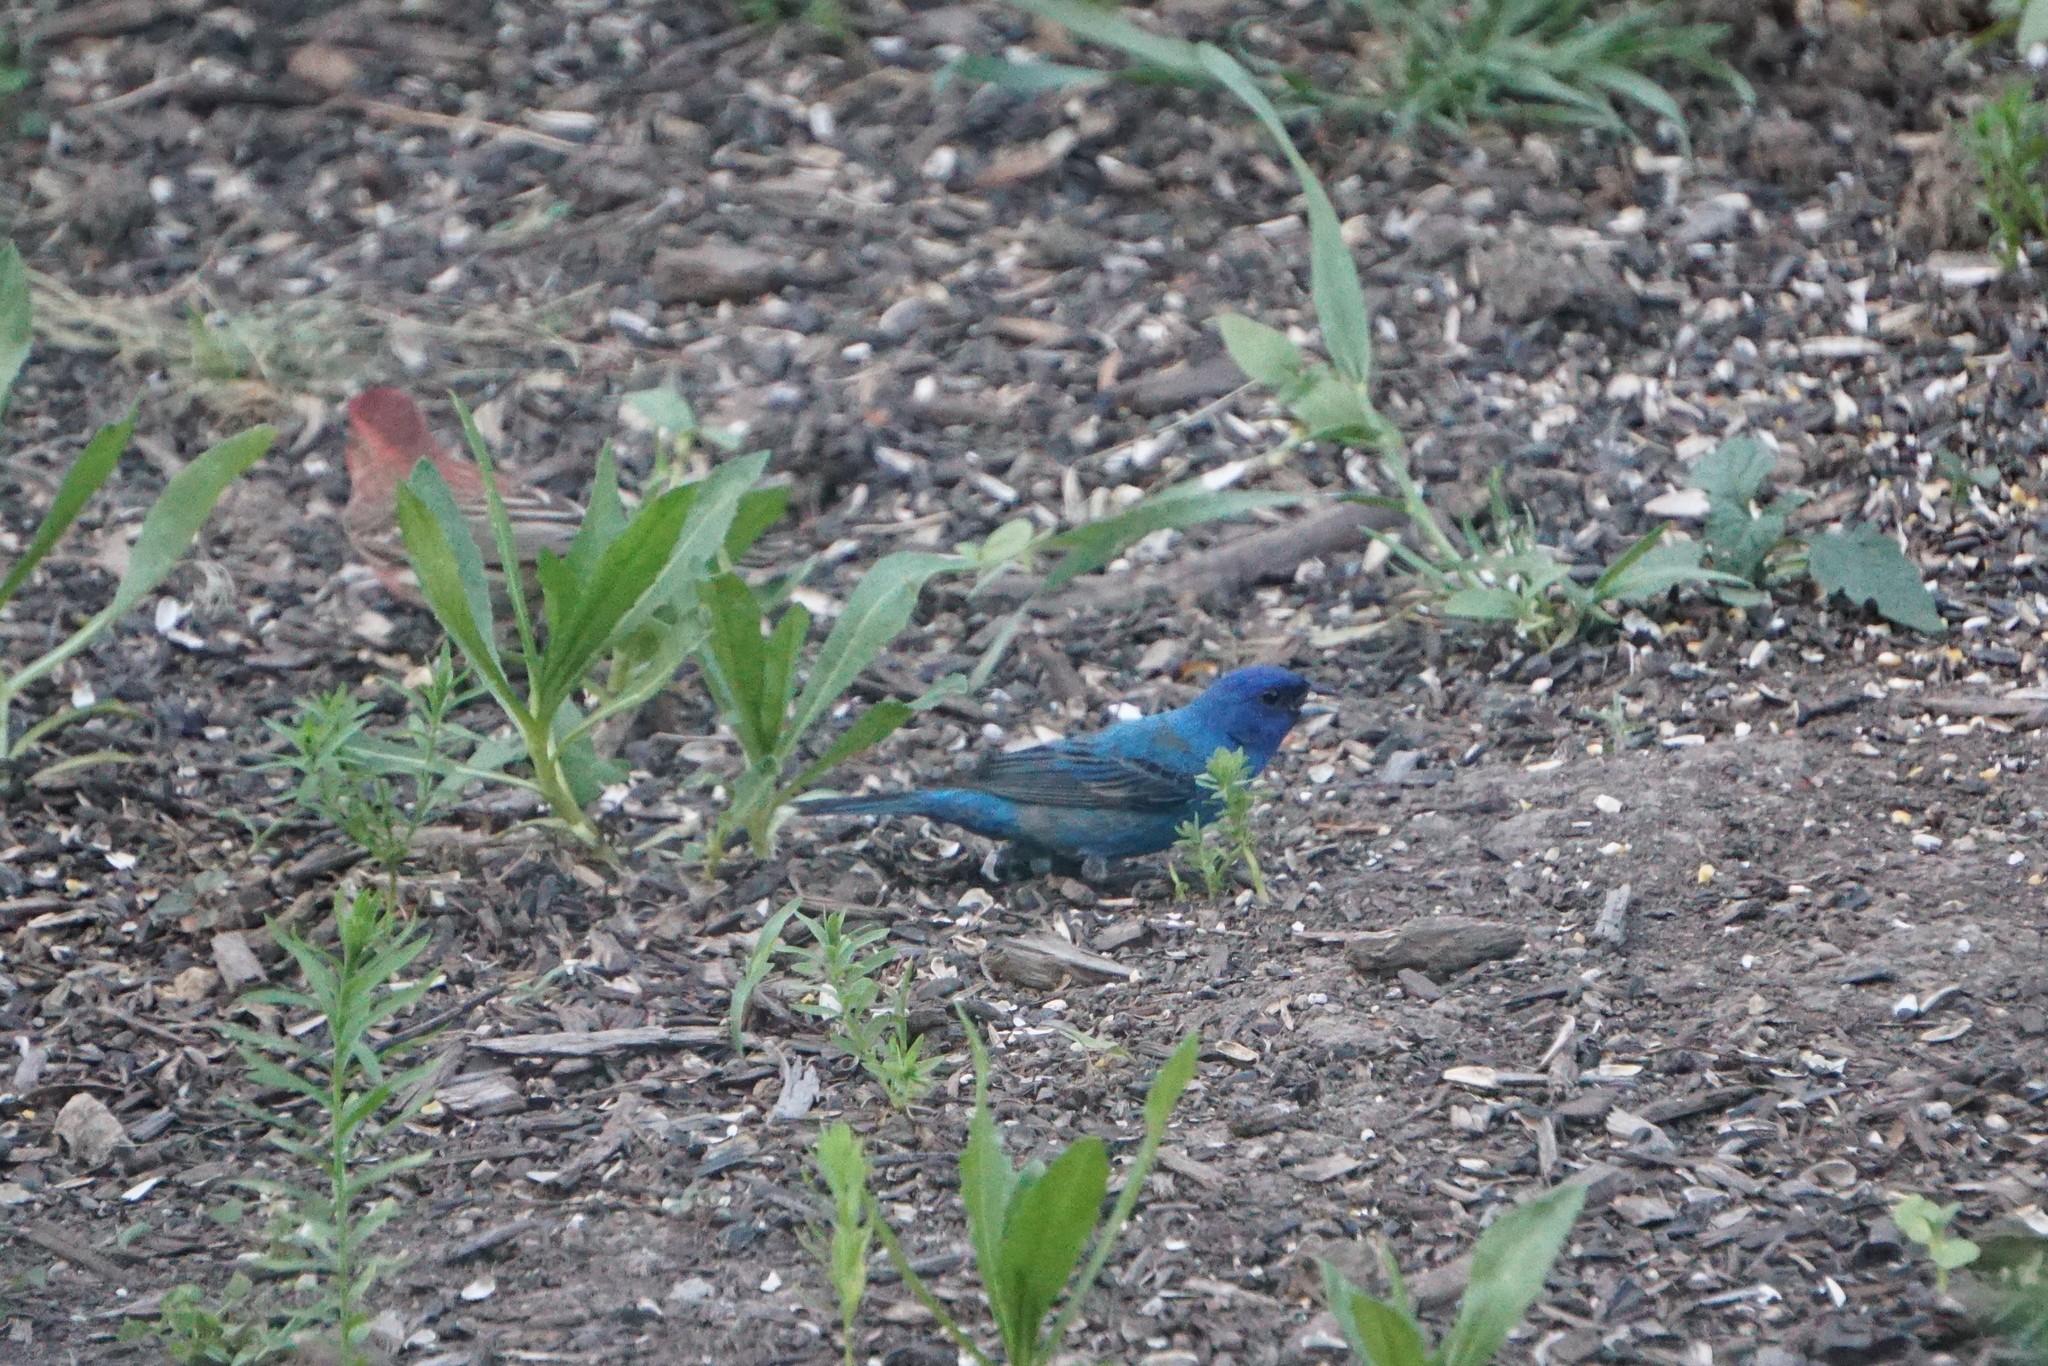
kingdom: Animalia
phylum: Chordata
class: Aves
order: Passeriformes
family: Cardinalidae
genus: Passerina
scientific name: Passerina cyanea
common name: Indigo bunting
